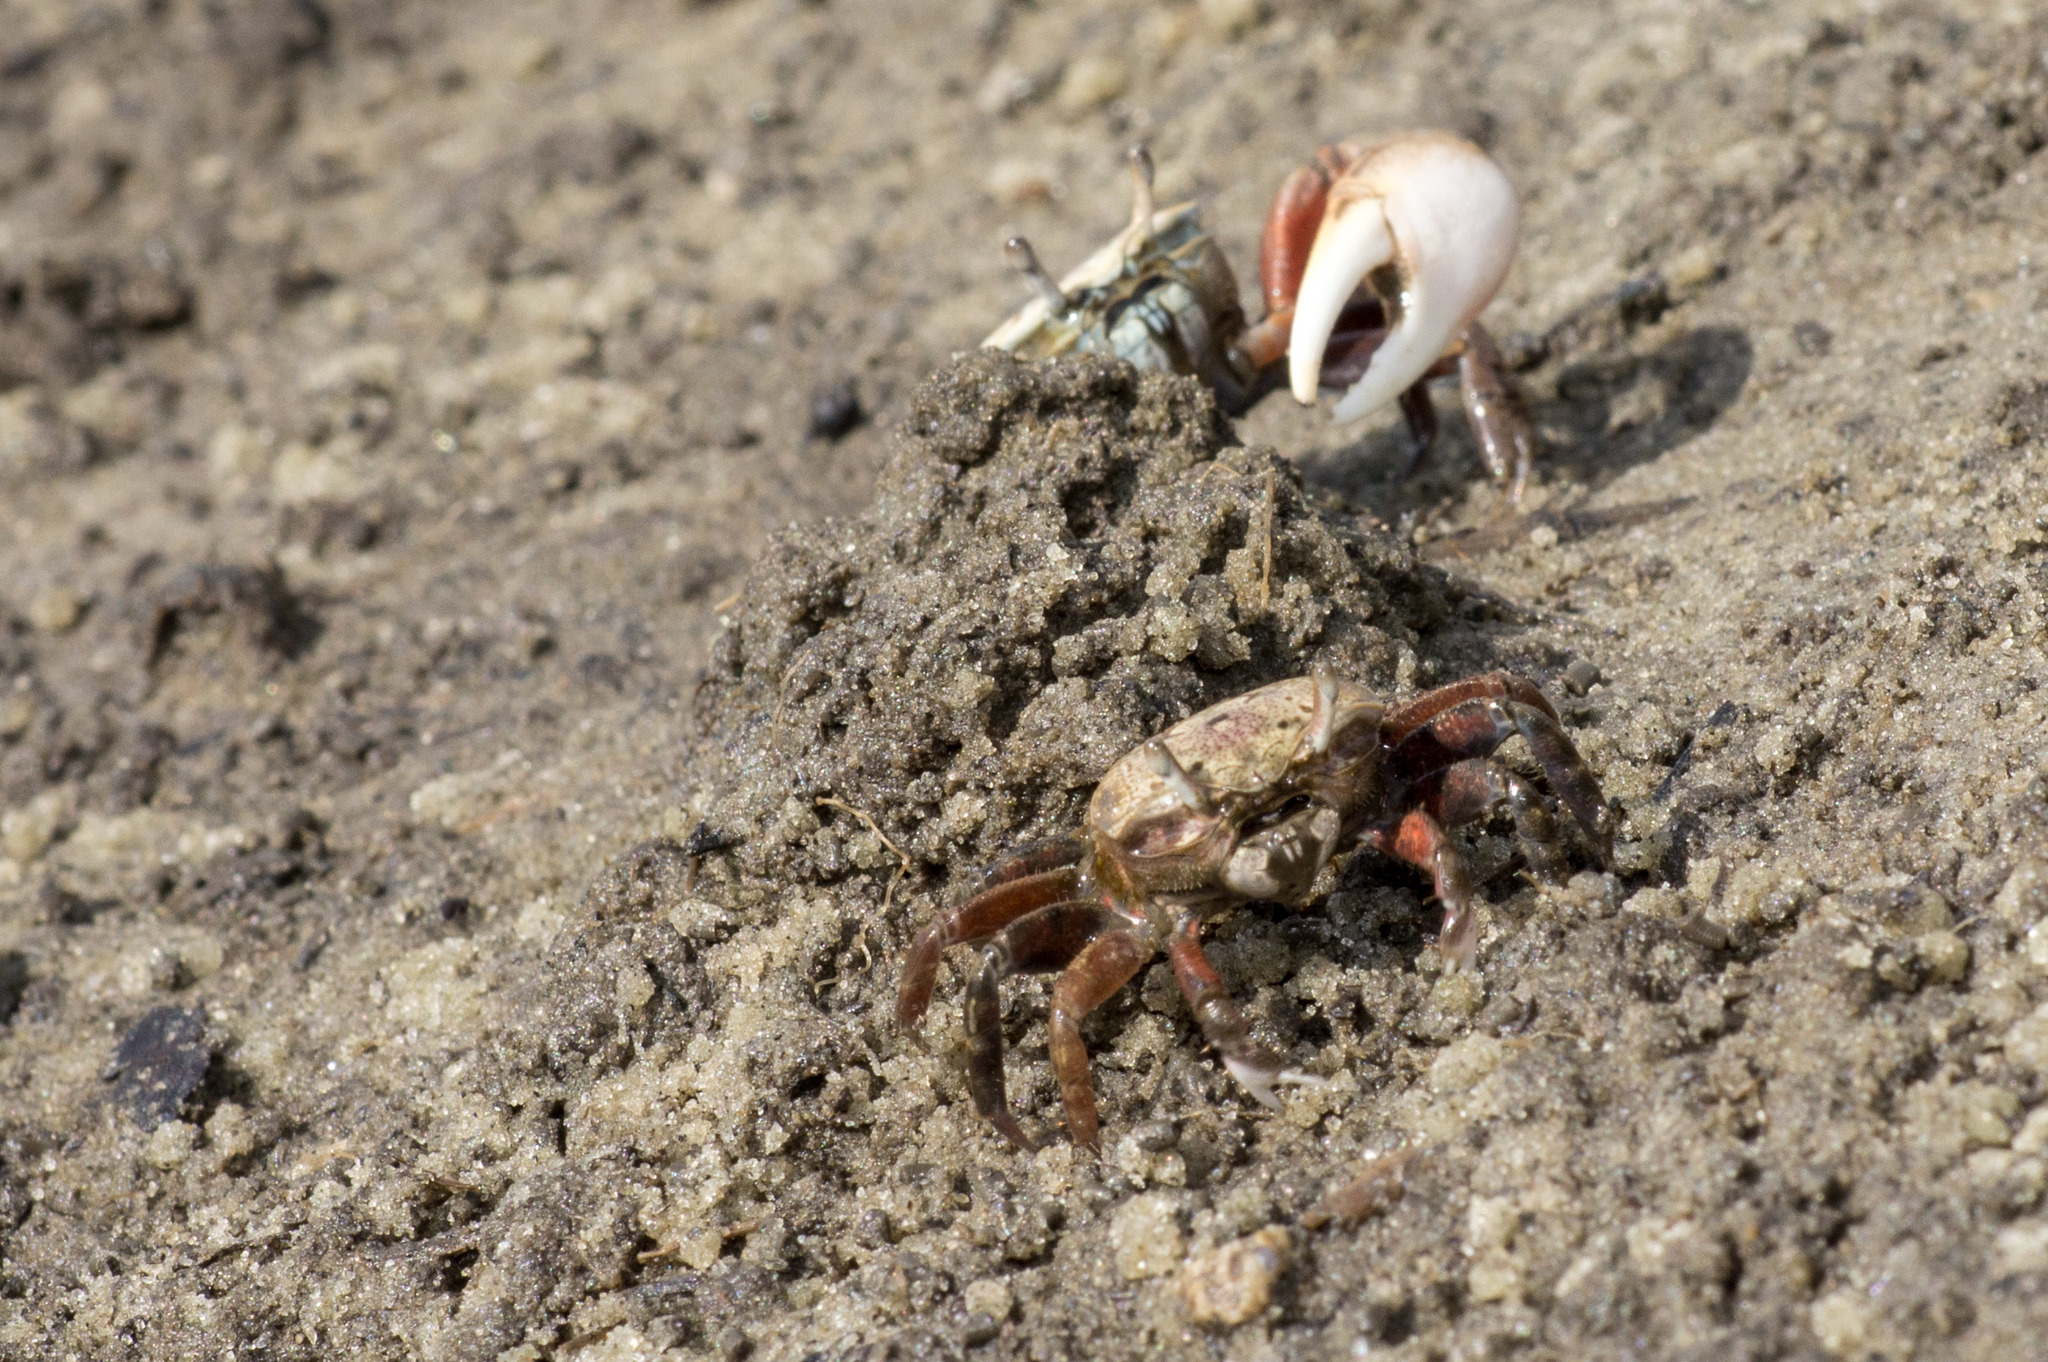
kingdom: Animalia
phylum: Arthropoda
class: Malacostraca
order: Decapoda
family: Ocypodidae
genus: Leptuca
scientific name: Leptuca pugilator
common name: Atlantic sand fiddler crab
